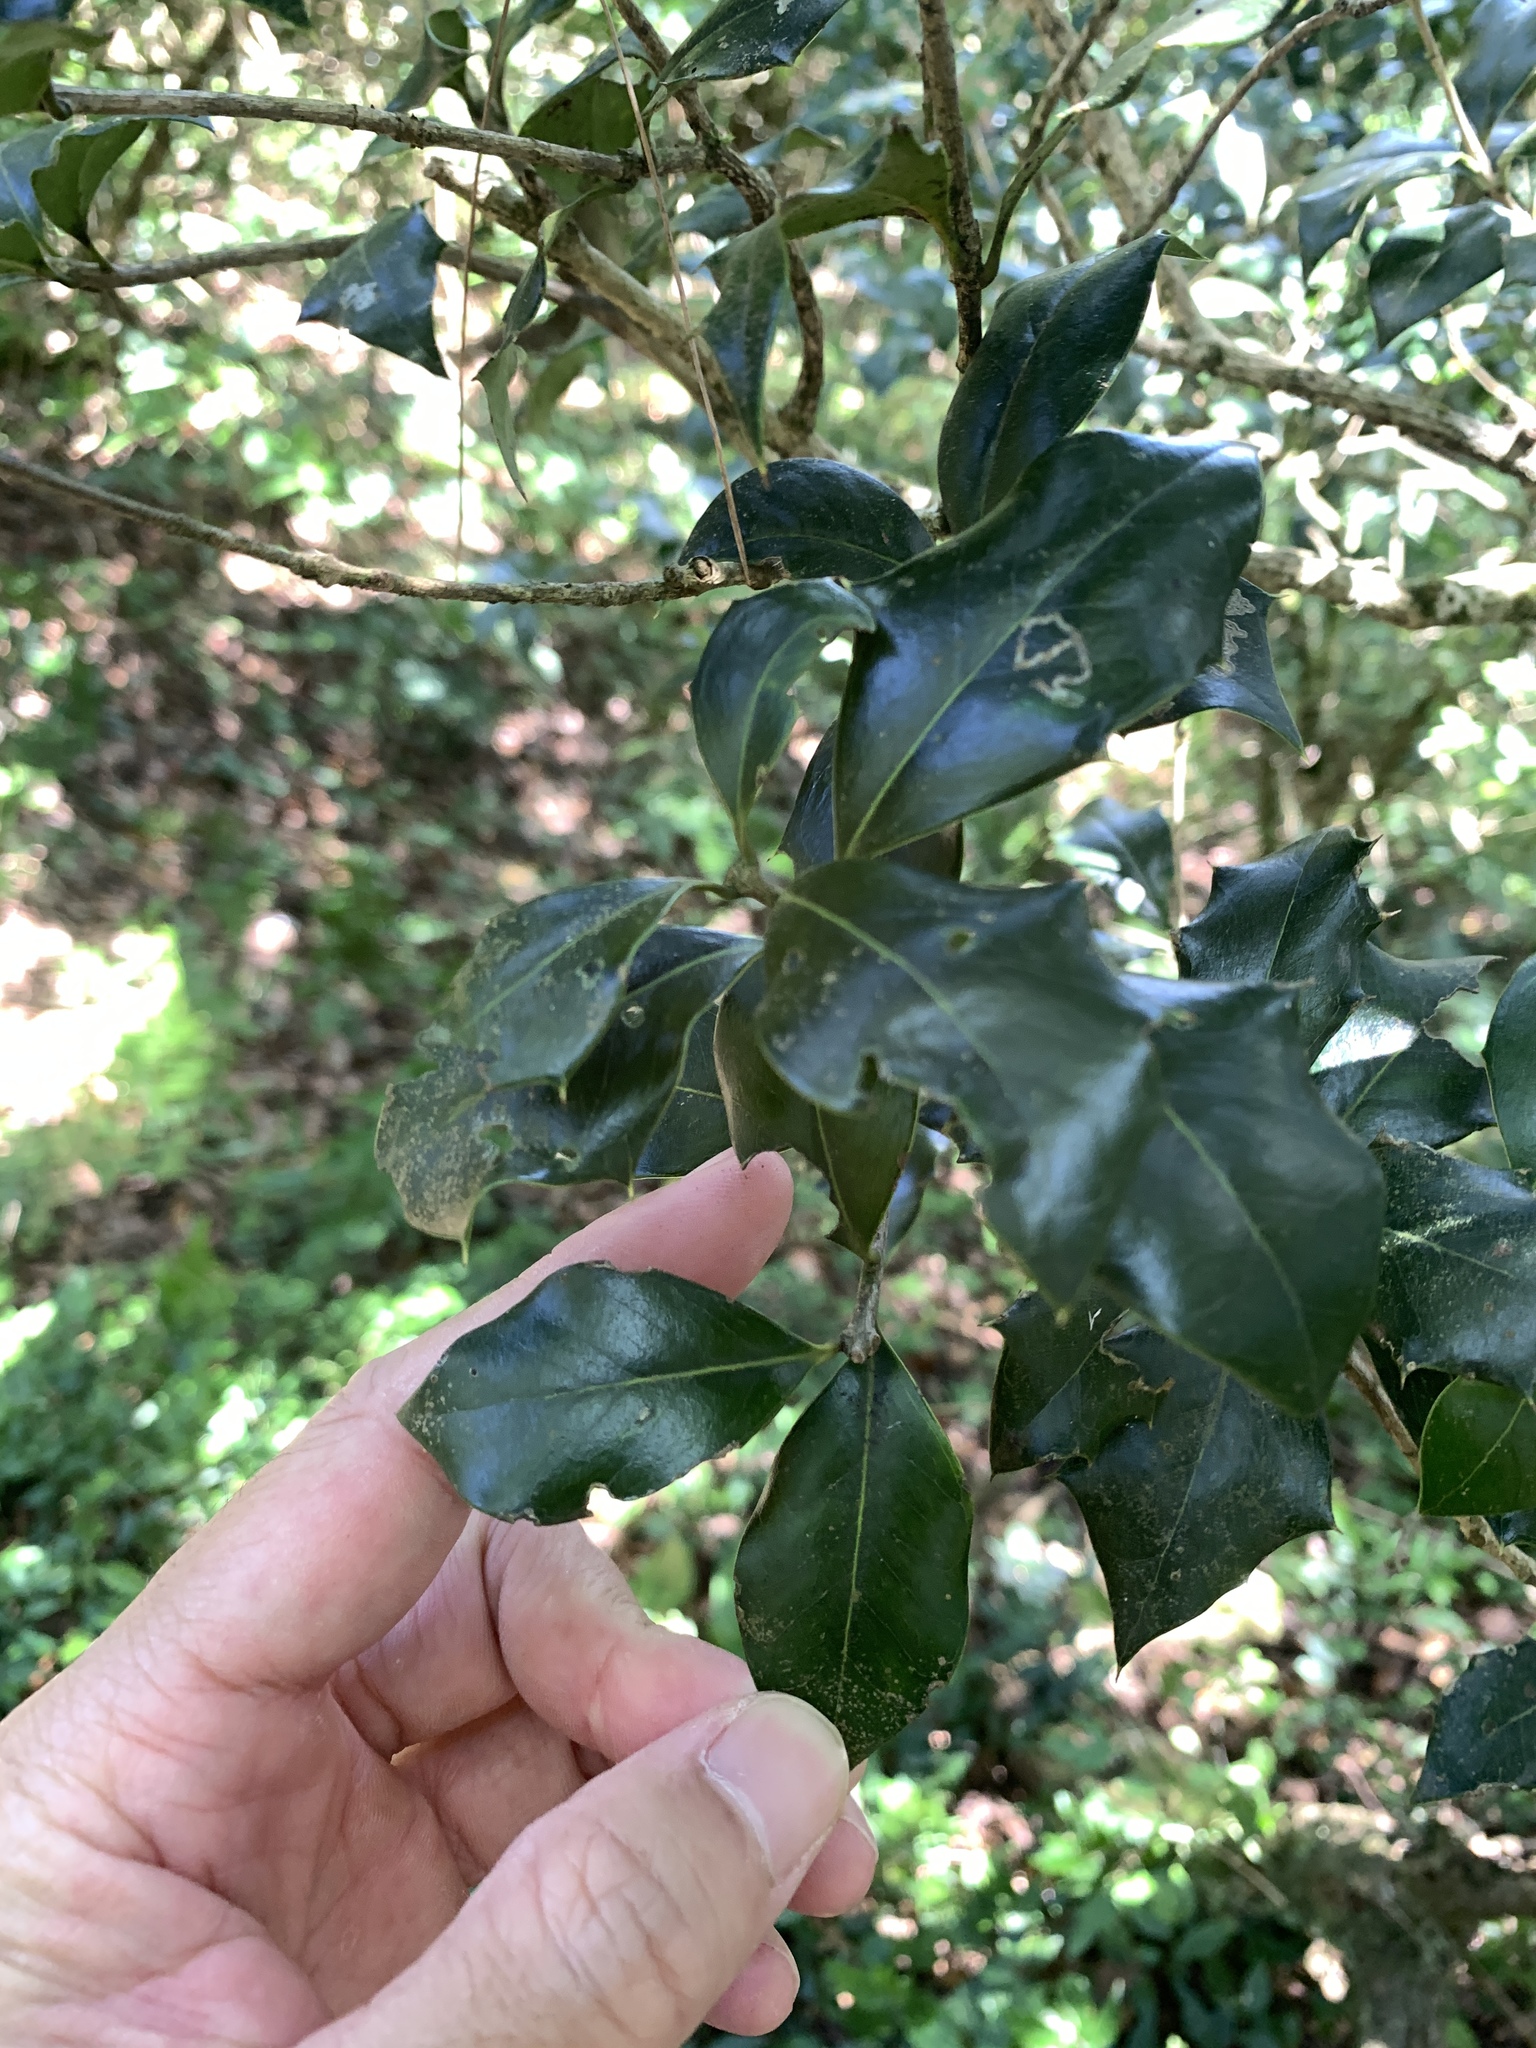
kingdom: Plantae
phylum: Tracheophyta
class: Magnoliopsida
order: Lamiales
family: Oleaceae
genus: Osmanthus
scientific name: Osmanthus heterophyllus
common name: Holly osmanthus
